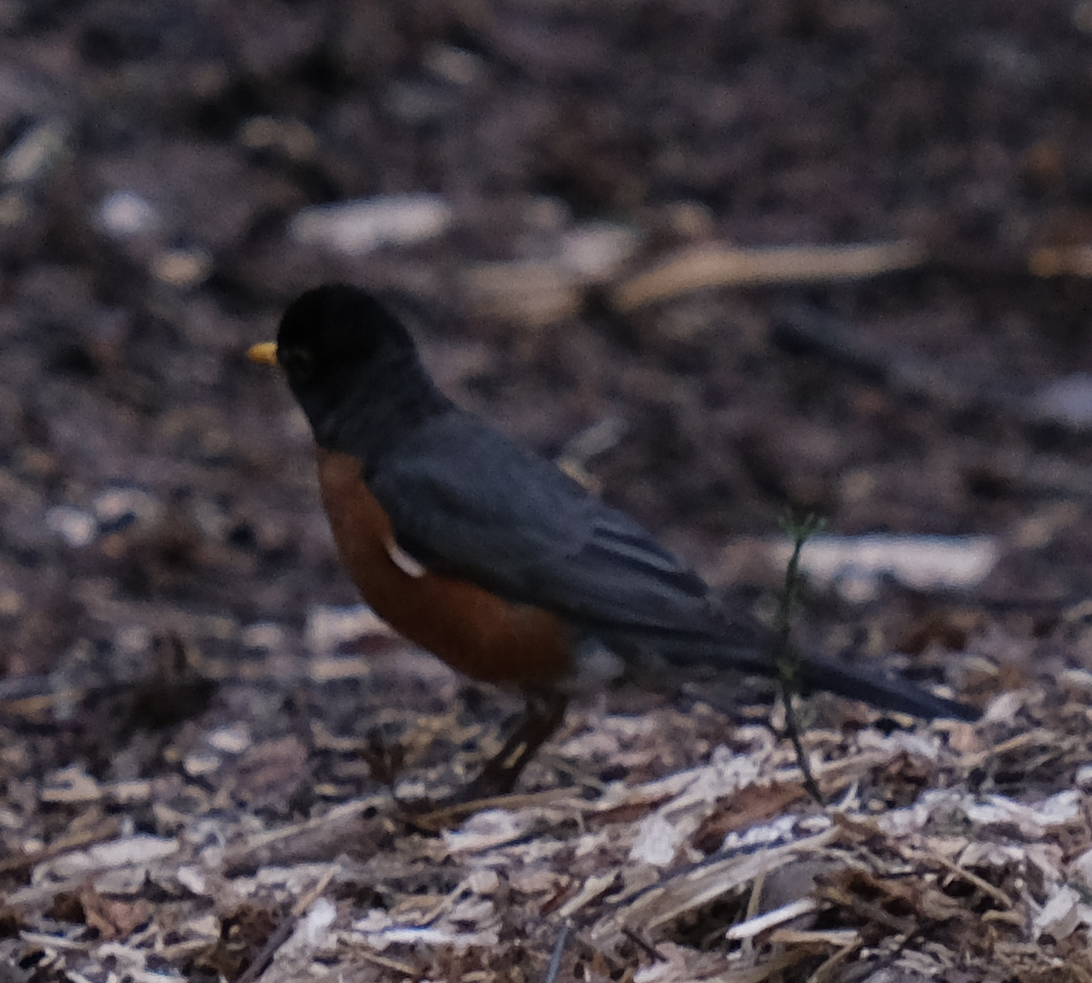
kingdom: Animalia
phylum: Chordata
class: Aves
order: Passeriformes
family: Turdidae
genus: Turdus
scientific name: Turdus migratorius
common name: American robin
